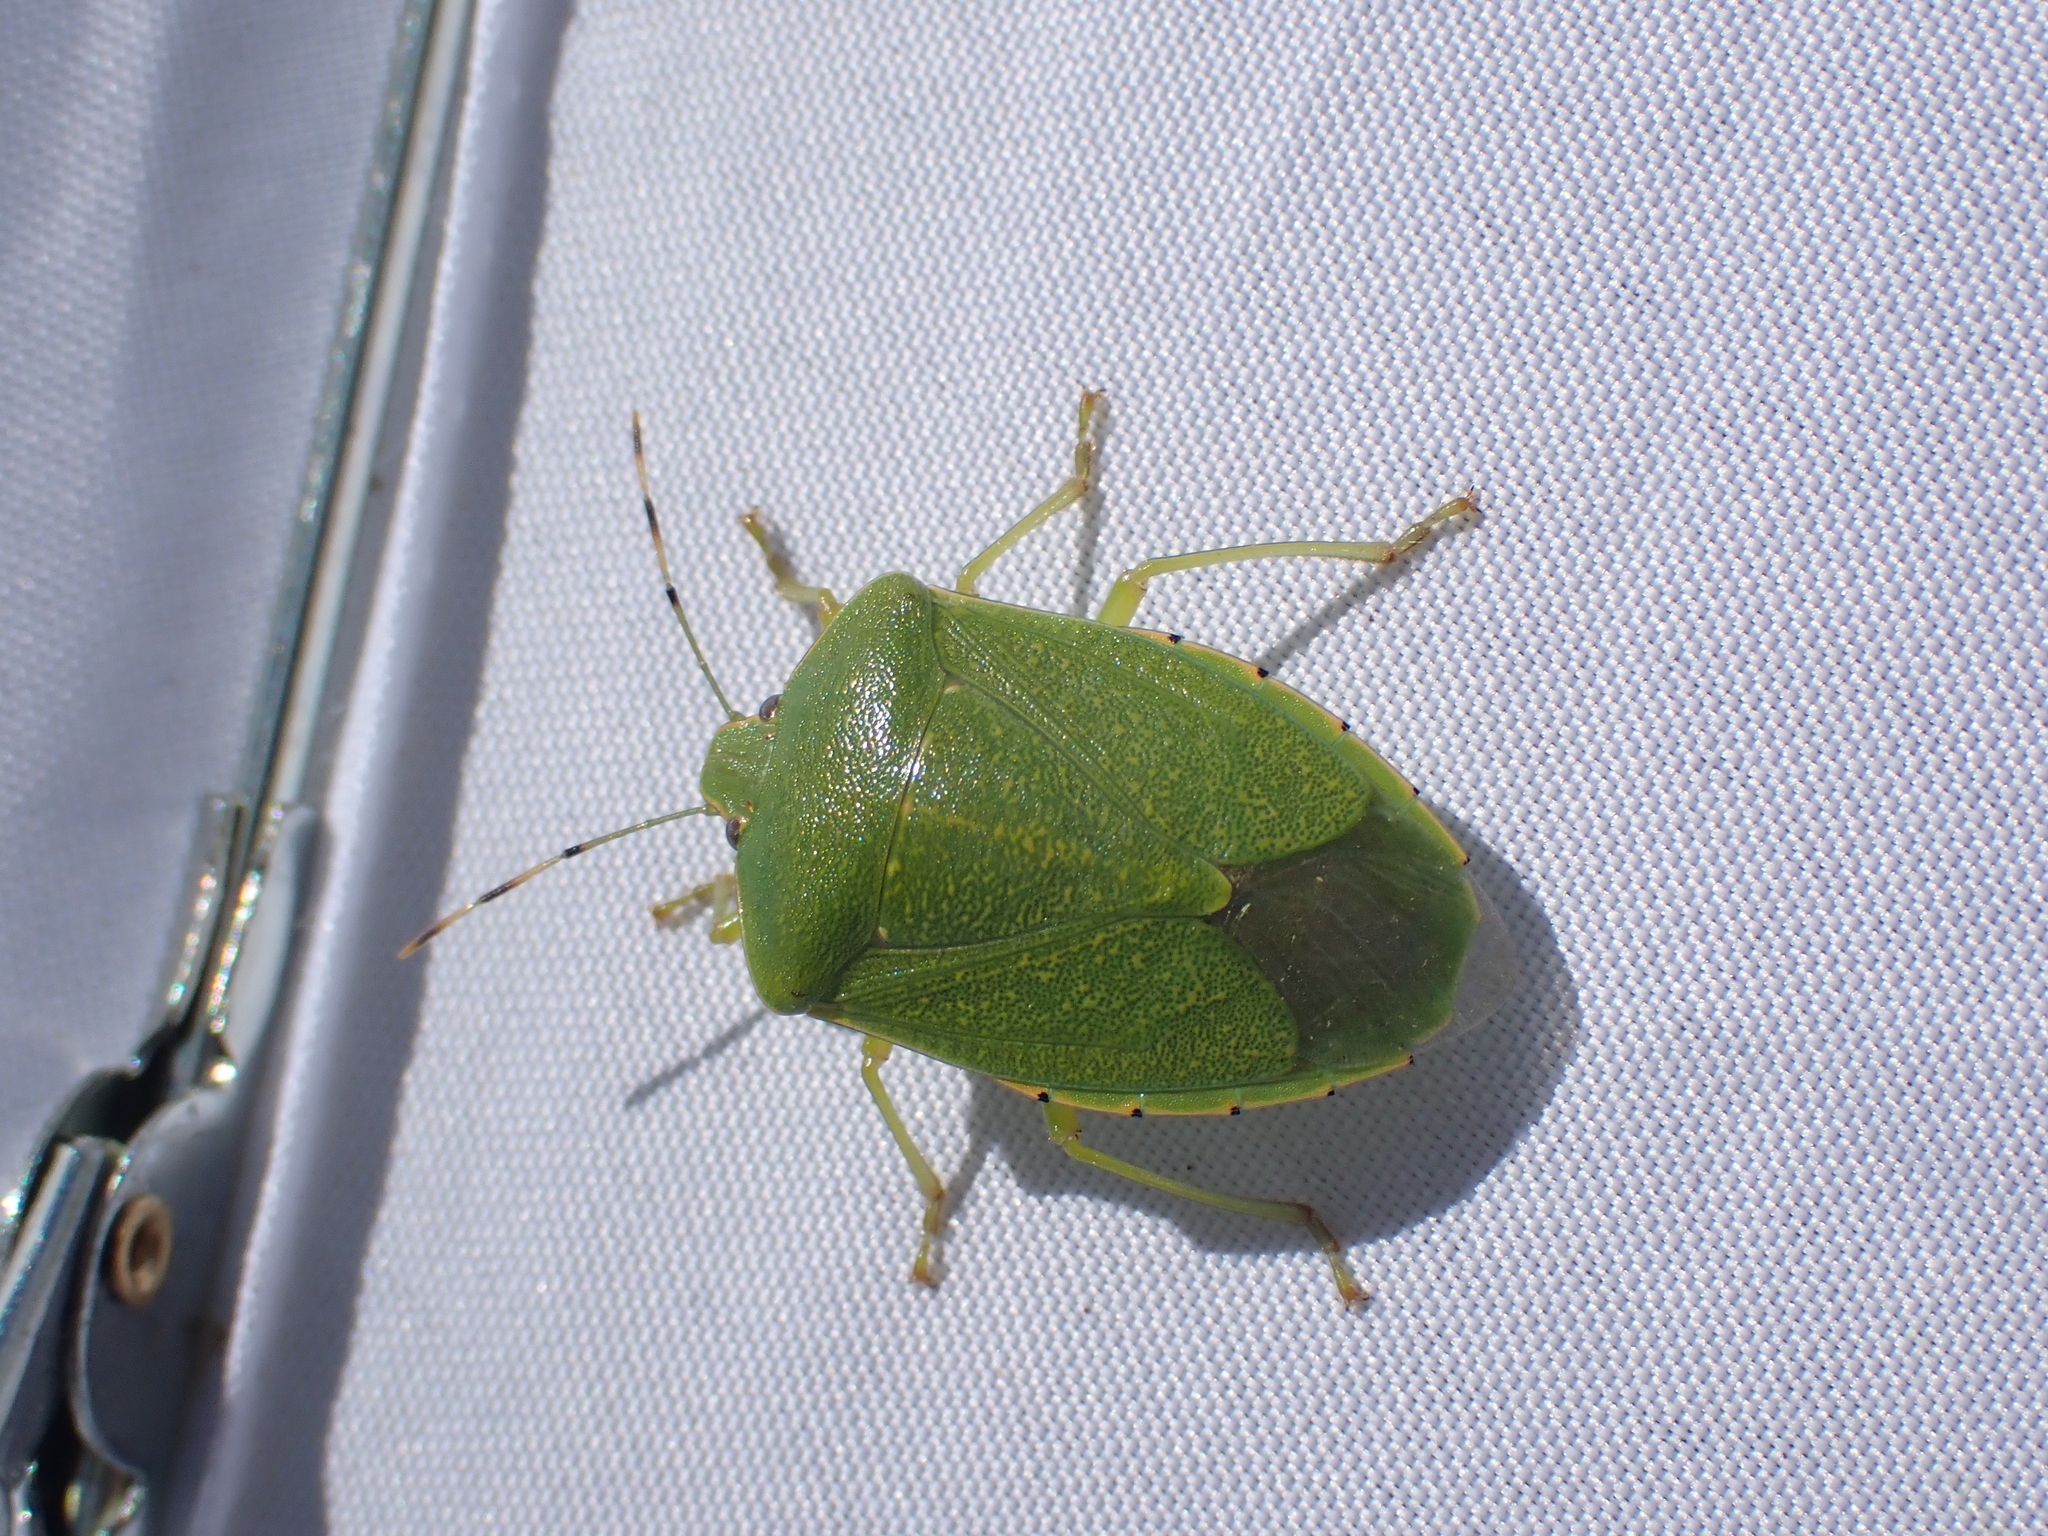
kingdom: Animalia
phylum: Arthropoda
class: Insecta
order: Hemiptera
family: Pentatomidae
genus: Chinavia
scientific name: Chinavia hilaris
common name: Green stink bug
